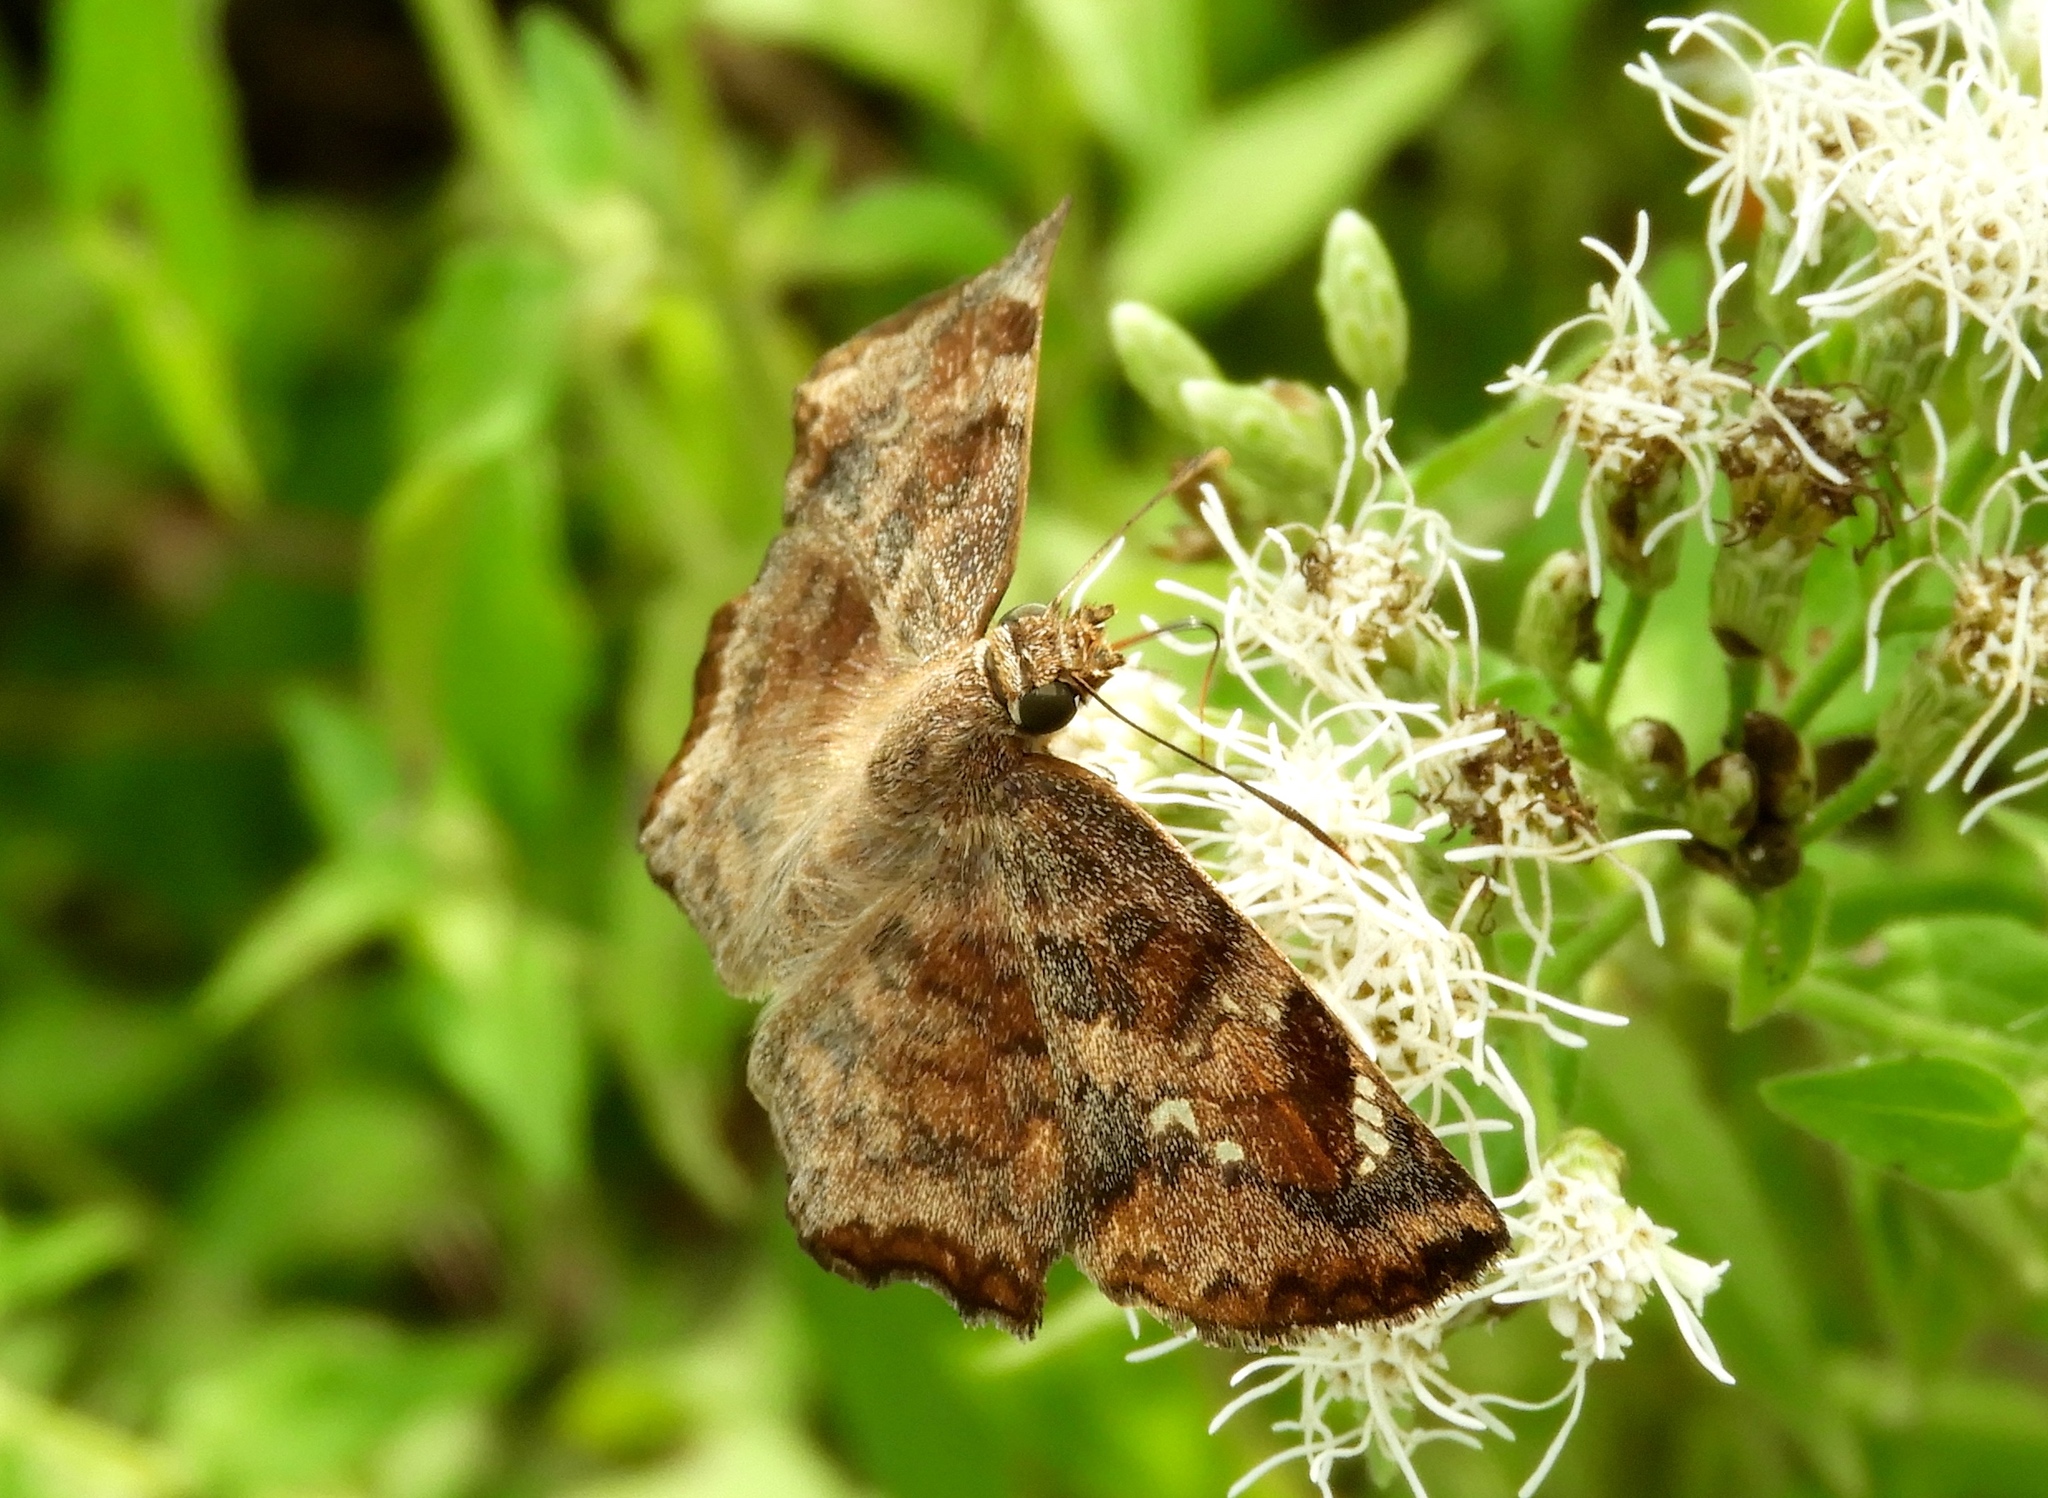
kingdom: Animalia
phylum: Arthropoda
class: Insecta
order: Lepidoptera
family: Hesperiidae
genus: Antigonus
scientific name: Antigonus erosus
